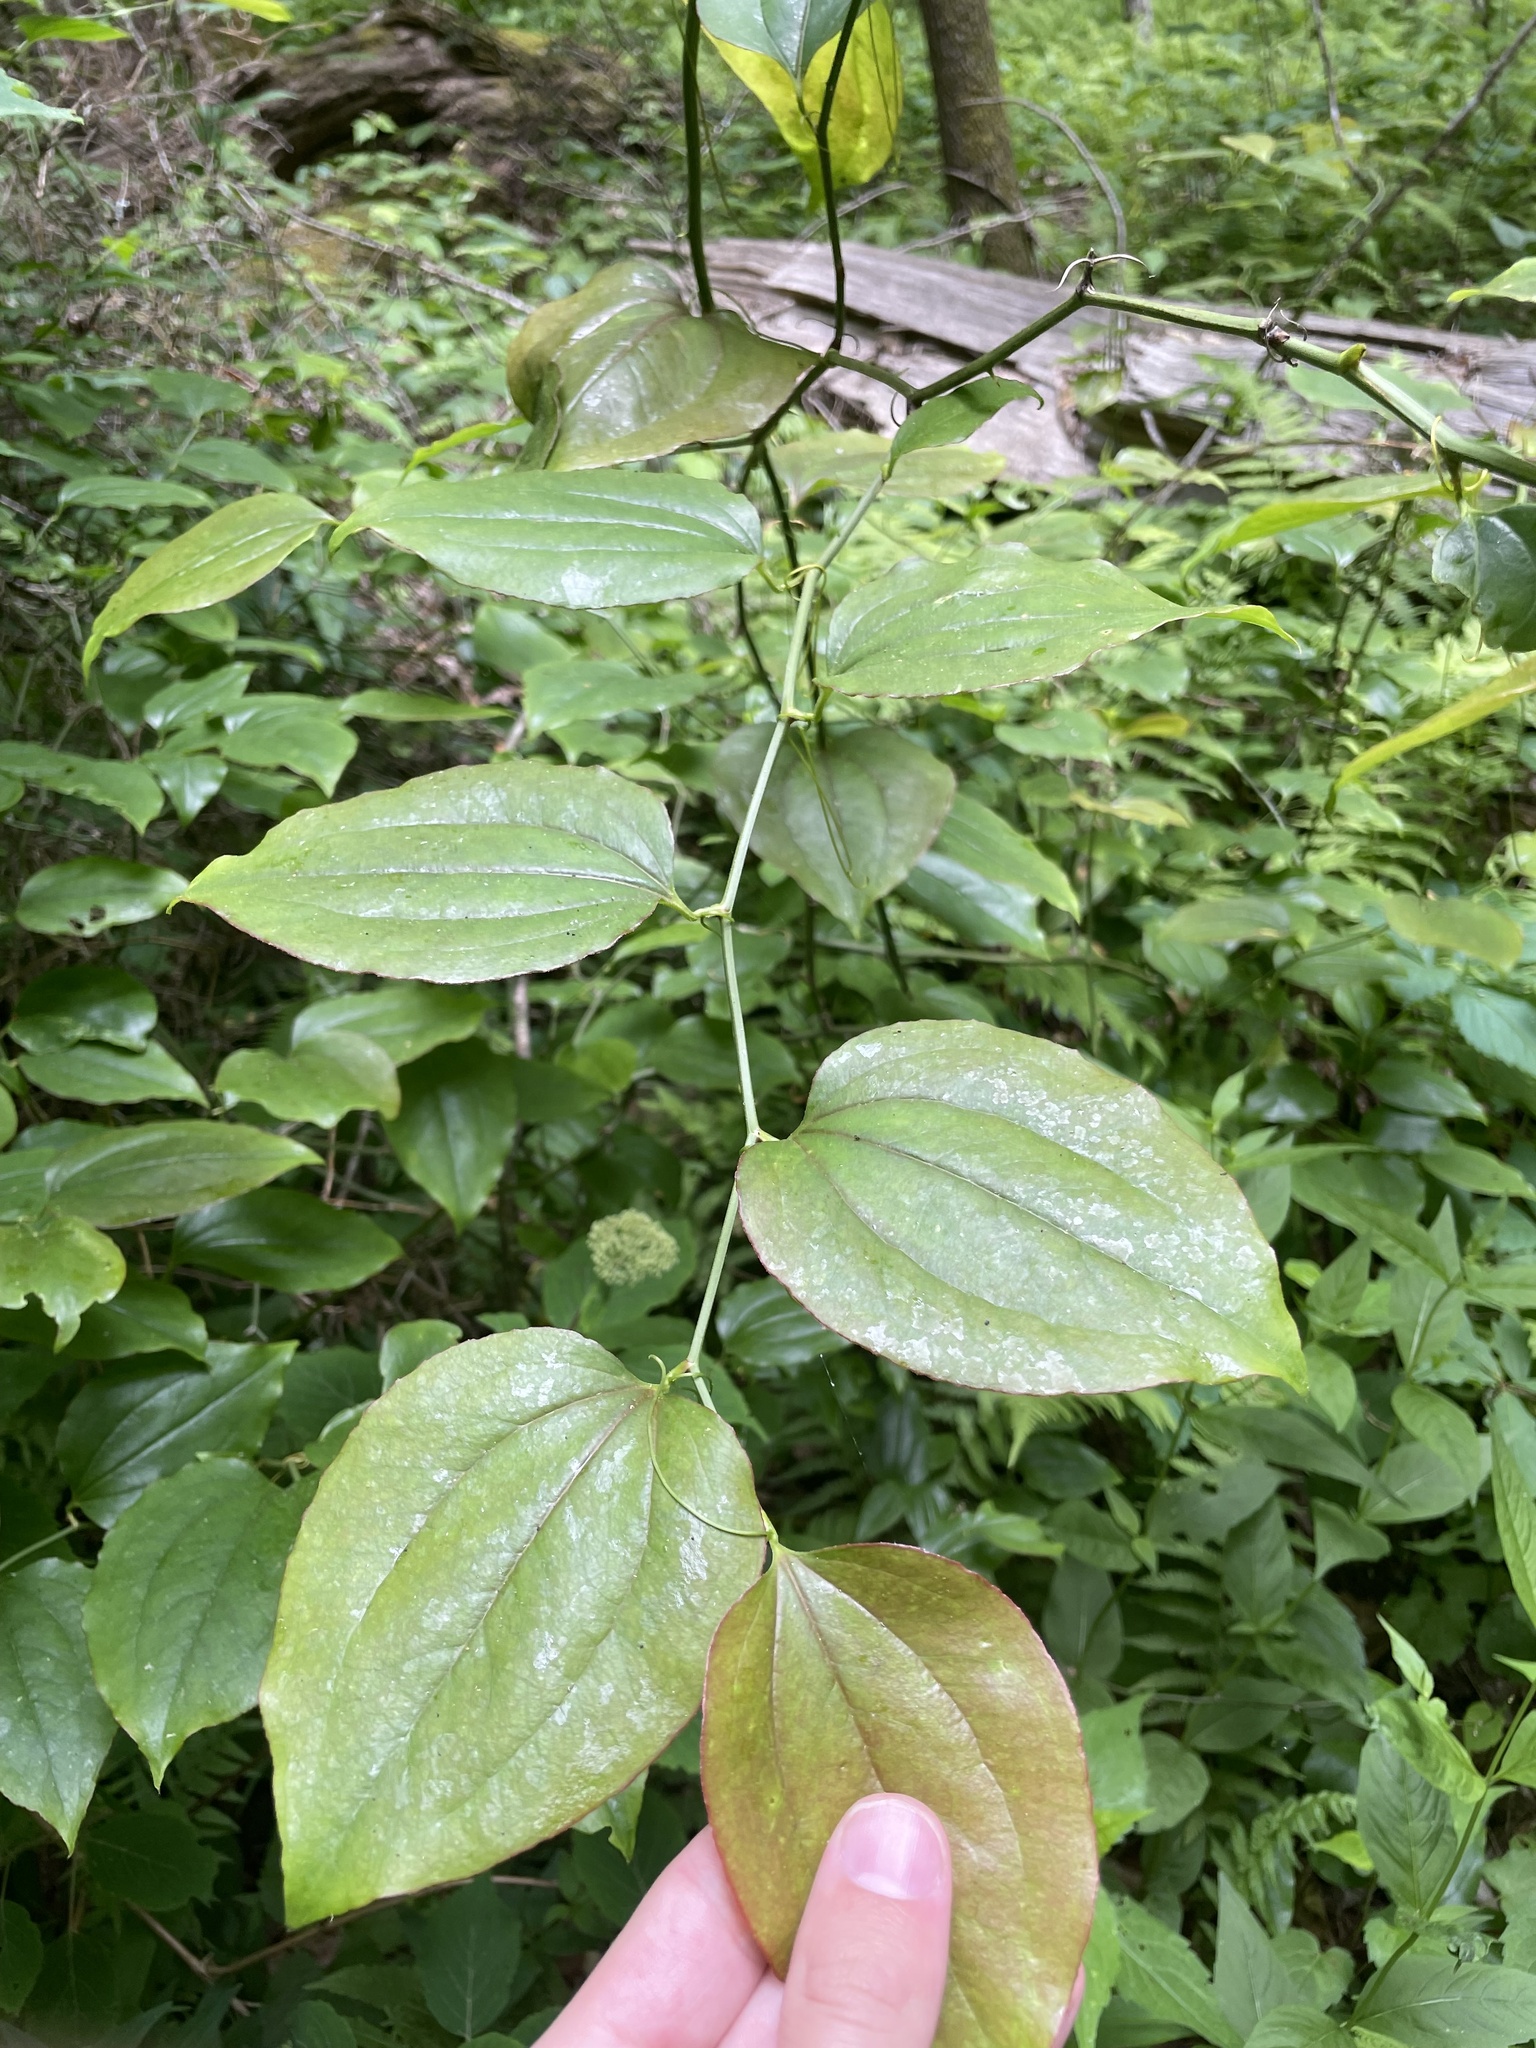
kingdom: Plantae
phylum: Tracheophyta
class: Liliopsida
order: Liliales
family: Smilacaceae
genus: Smilax
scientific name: Smilax rotundifolia
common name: Bullbriar
